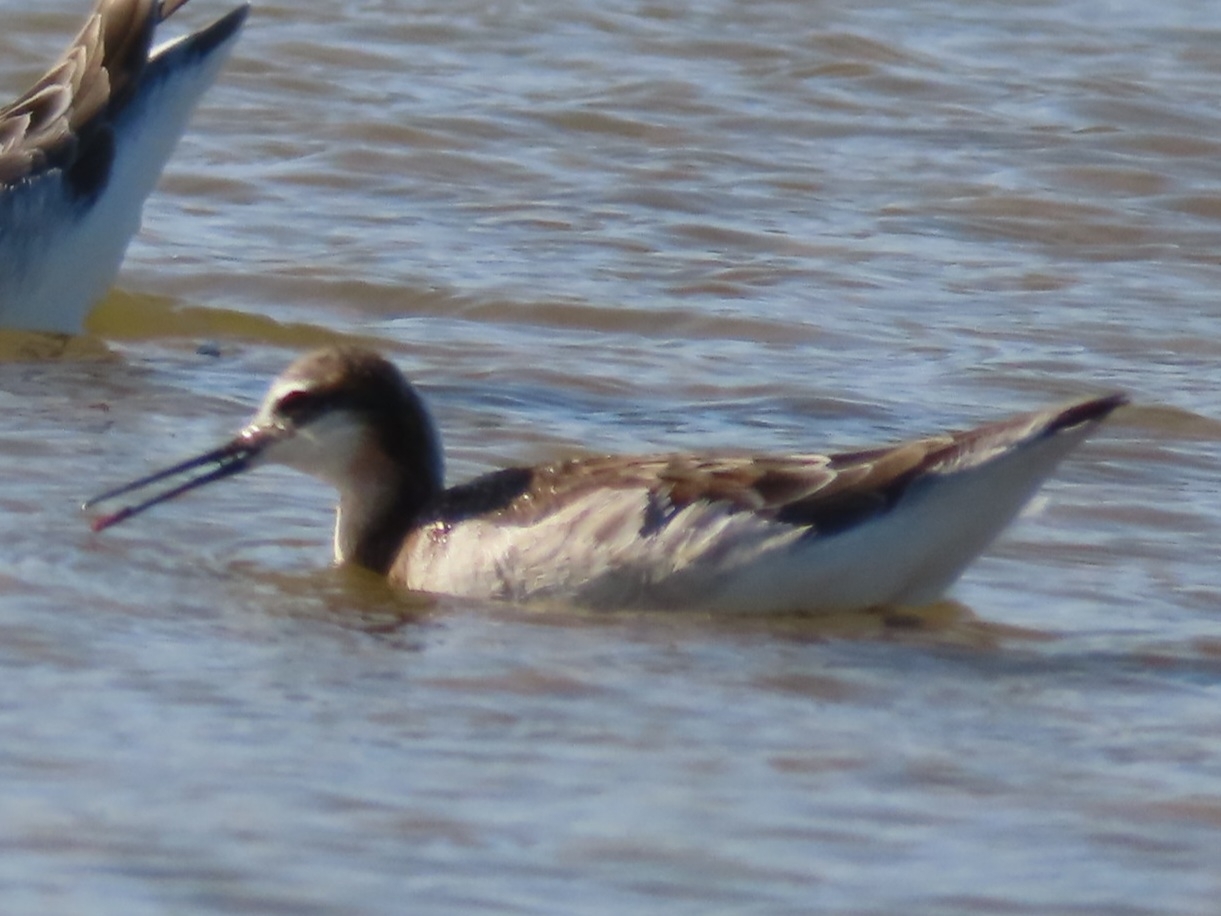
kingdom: Animalia
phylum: Chordata
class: Aves
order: Charadriiformes
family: Scolopacidae
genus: Phalaropus
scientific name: Phalaropus tricolor
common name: Wilson's phalarope
